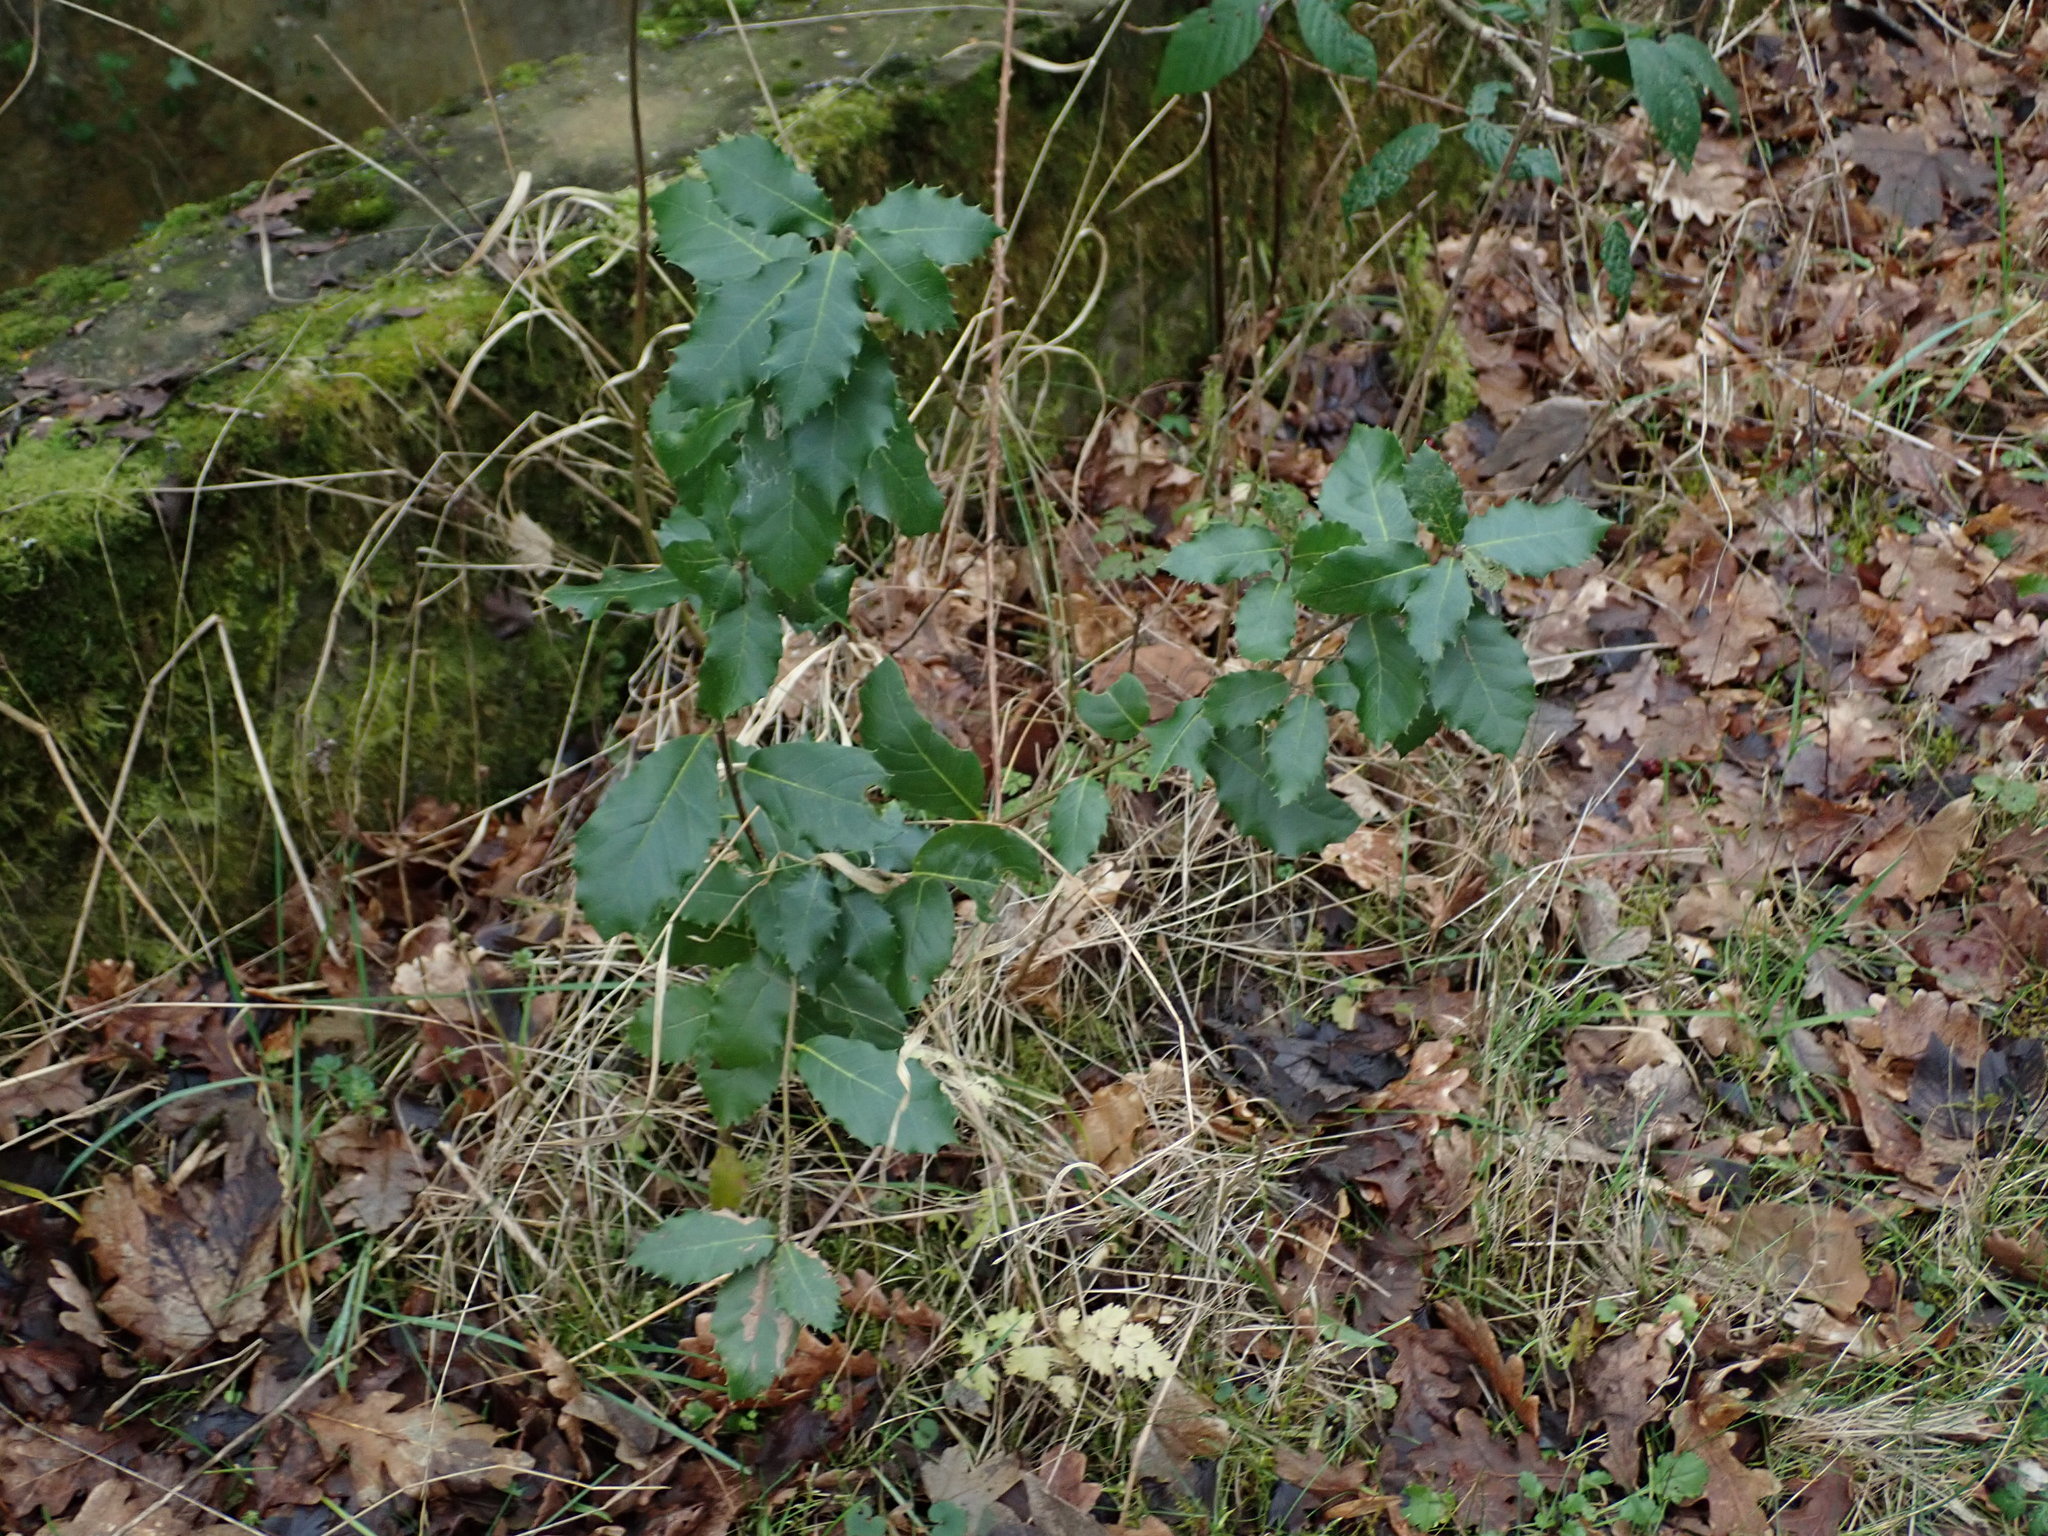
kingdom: Plantae
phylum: Tracheophyta
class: Magnoliopsida
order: Fagales
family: Fagaceae
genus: Quercus
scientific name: Quercus ilex
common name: Evergreen oak
